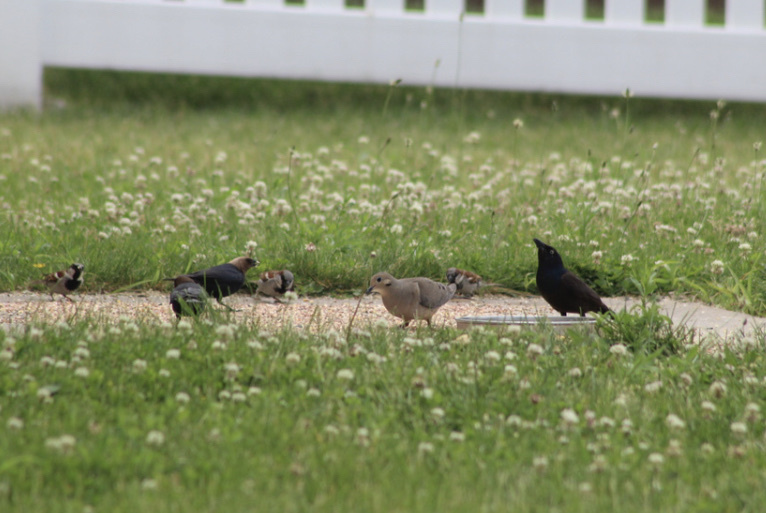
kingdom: Plantae
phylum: Tracheophyta
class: Magnoliopsida
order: Fabales
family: Fabaceae
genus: Trifolium
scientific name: Trifolium repens
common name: White clover
